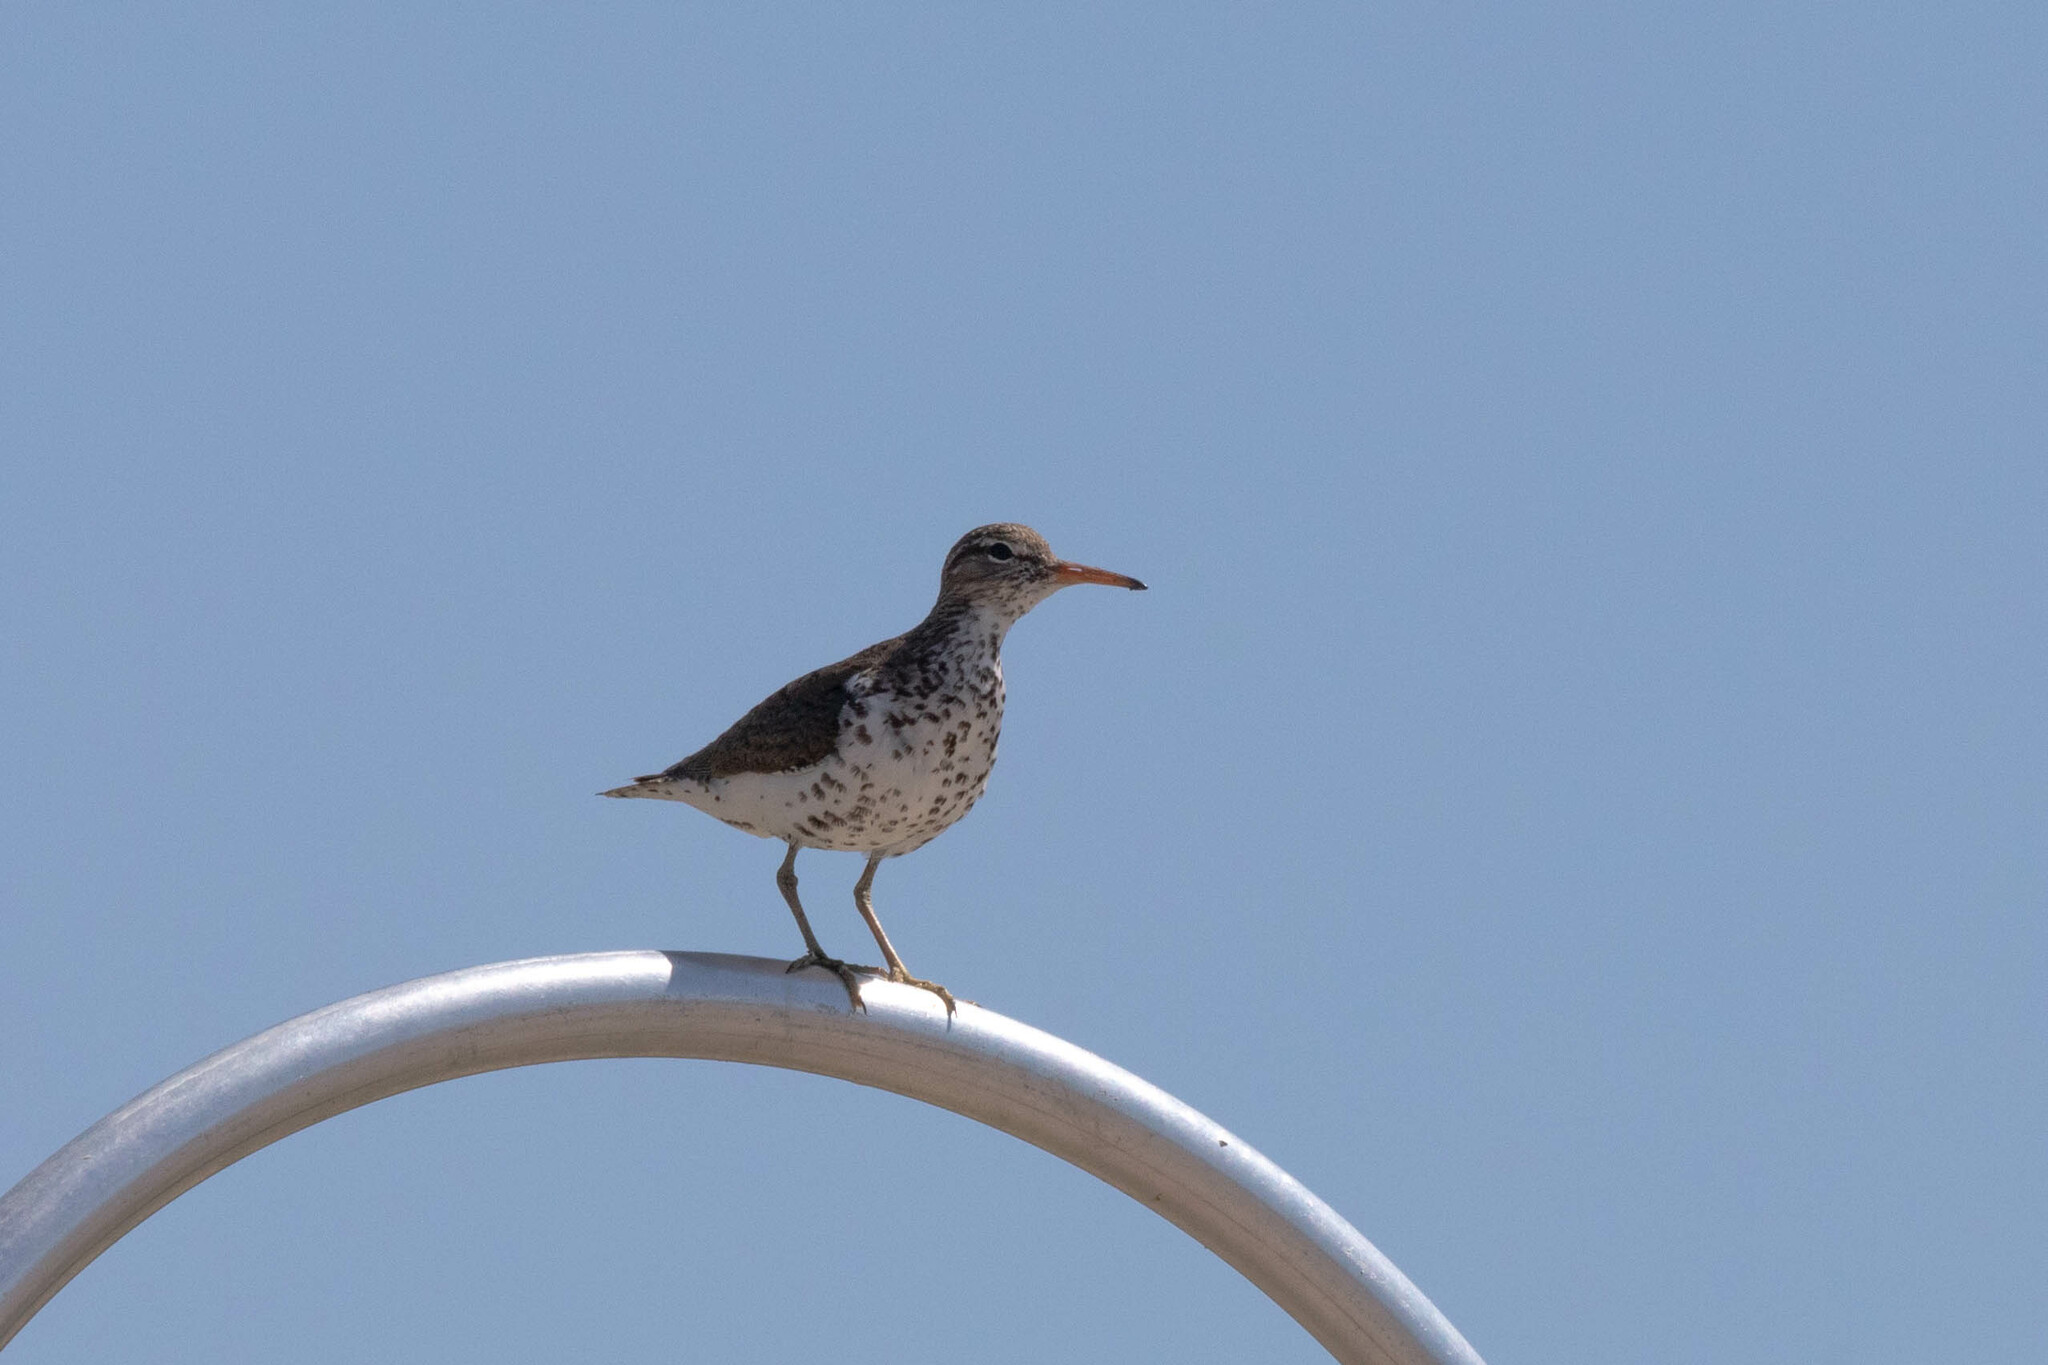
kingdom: Animalia
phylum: Chordata
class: Aves
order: Charadriiformes
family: Scolopacidae
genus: Actitis
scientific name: Actitis macularius
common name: Spotted sandpiper
